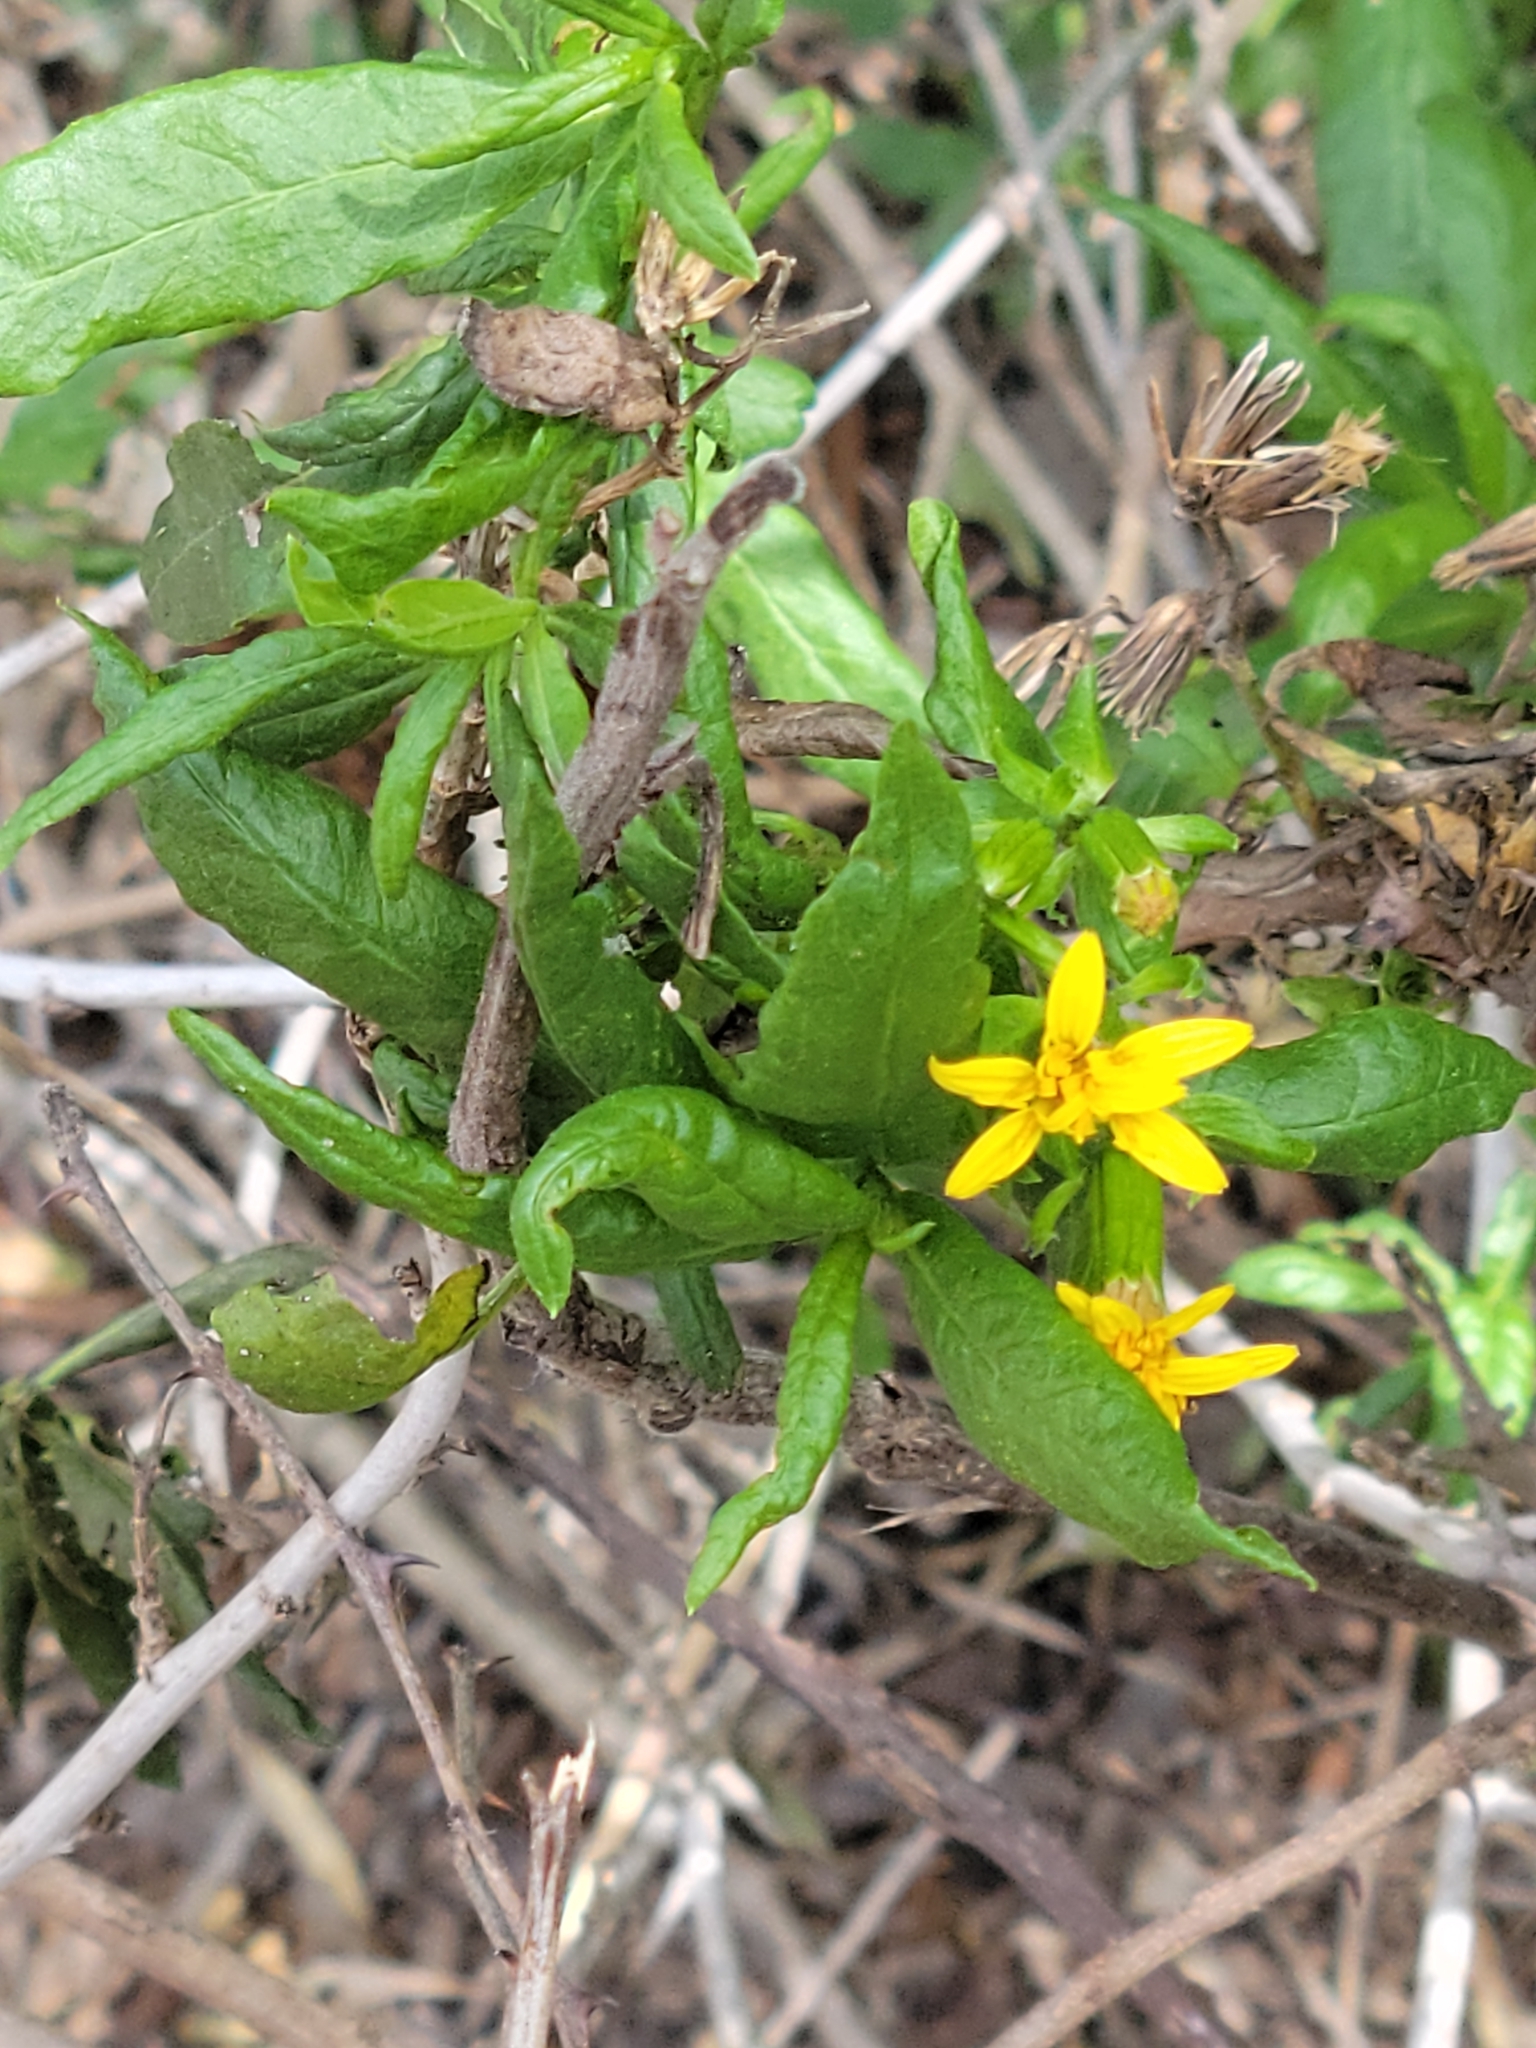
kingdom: Plantae
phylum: Tracheophyta
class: Magnoliopsida
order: Asterales
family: Asteraceae
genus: Trixis
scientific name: Trixis inula
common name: Tropical threefold
